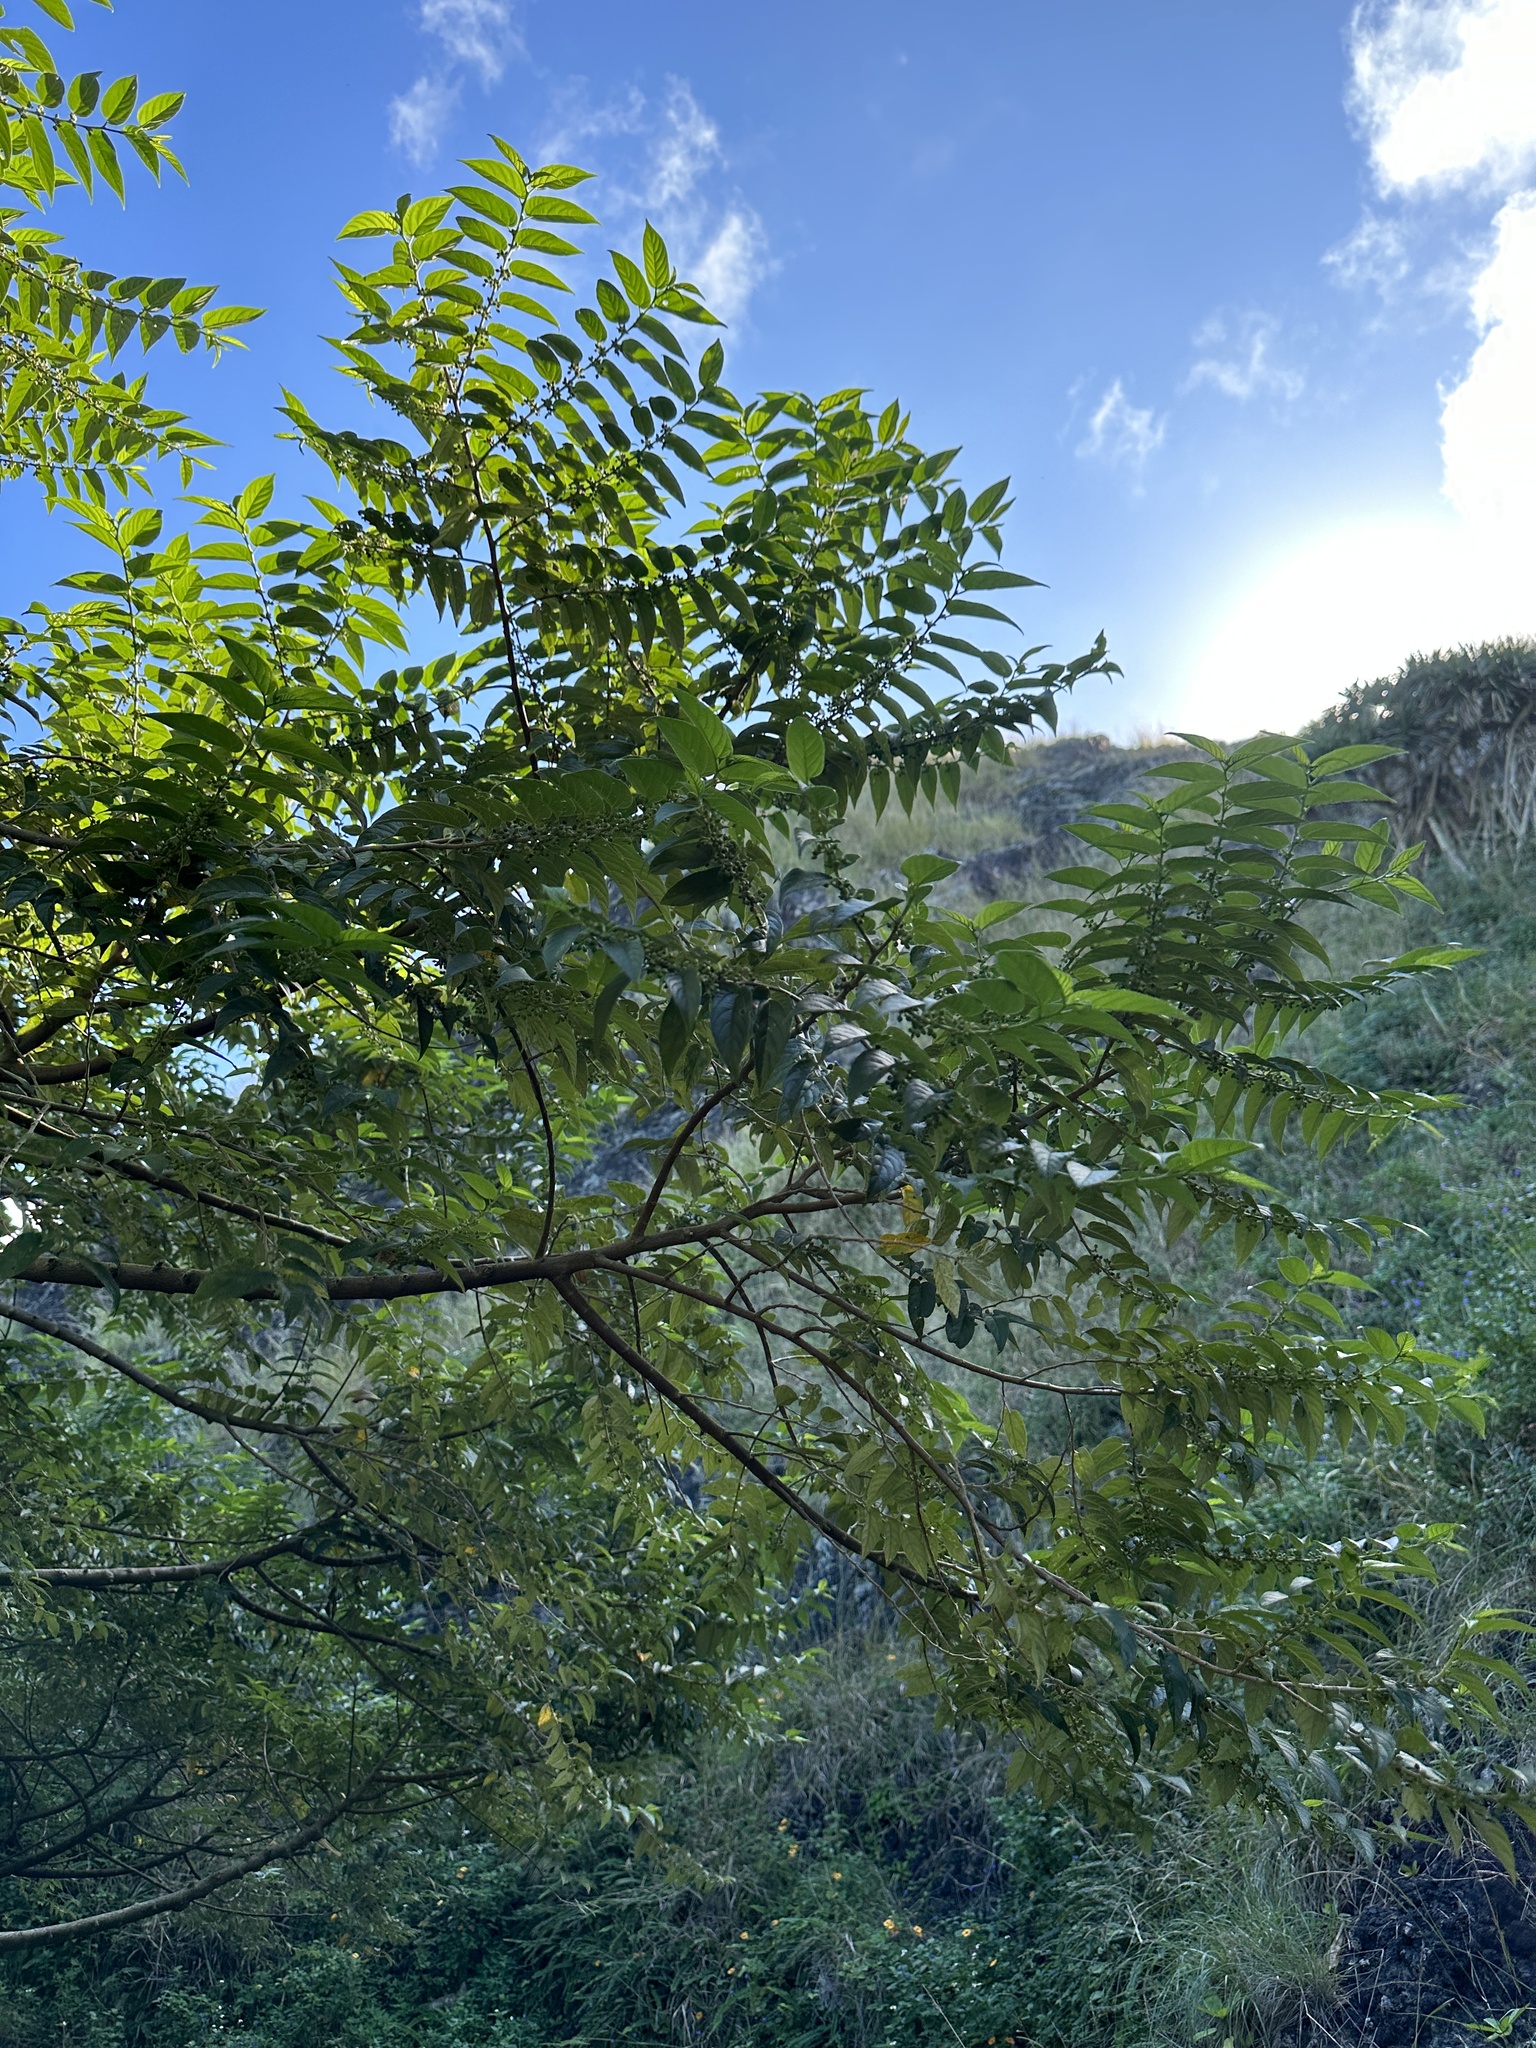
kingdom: Plantae
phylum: Tracheophyta
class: Magnoliopsida
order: Rosales
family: Cannabaceae
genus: Trema
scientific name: Trema orientale
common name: Indian charcoal tree
